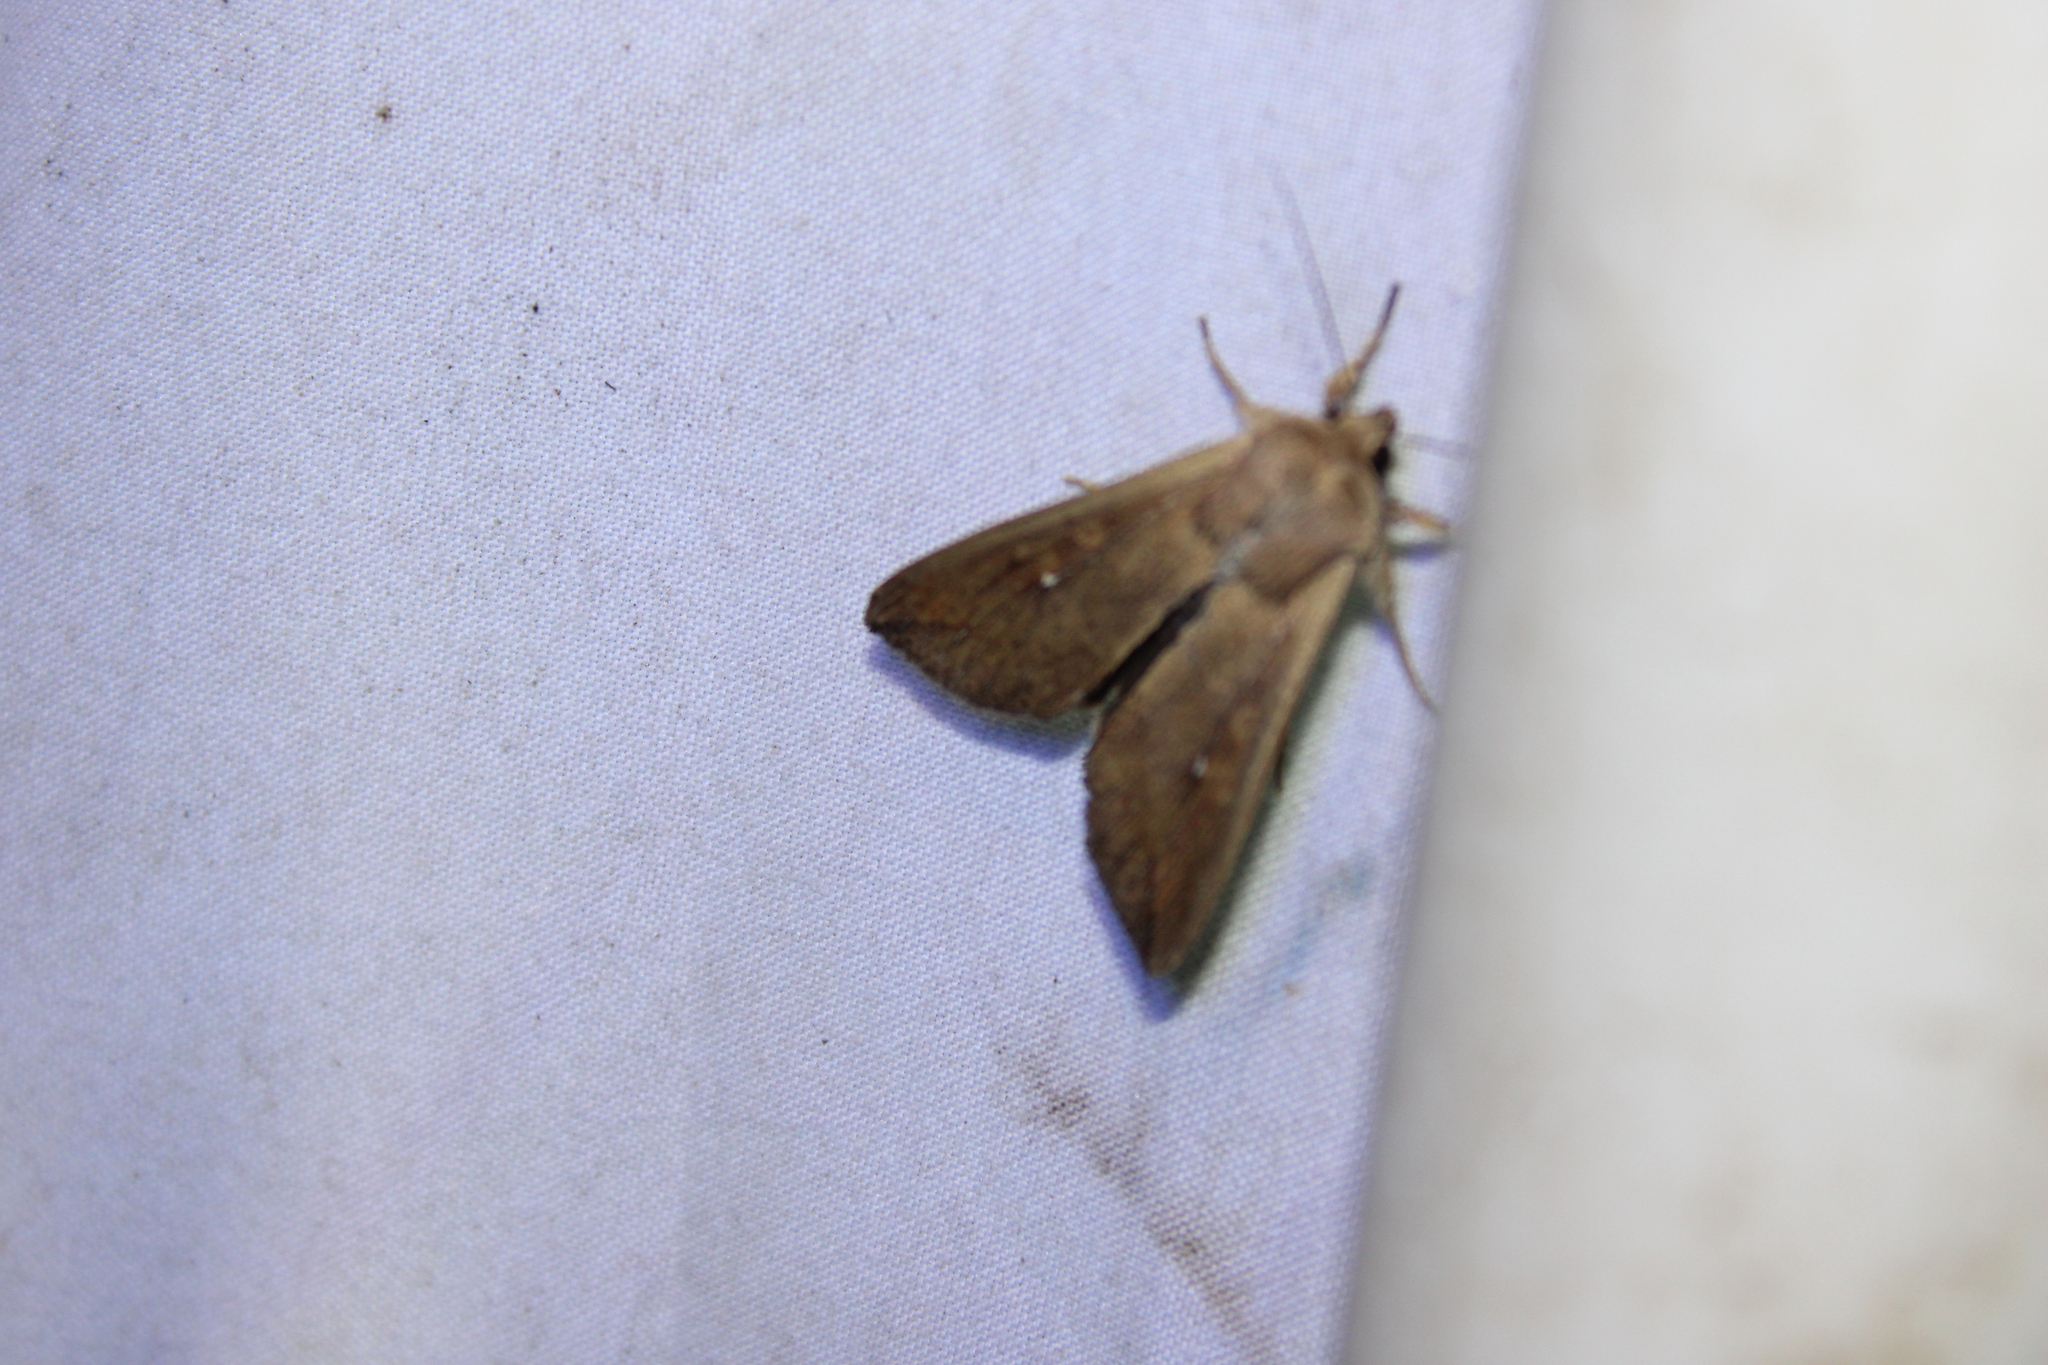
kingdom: Animalia
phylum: Arthropoda
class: Insecta
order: Lepidoptera
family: Noctuidae
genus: Mythimna
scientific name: Mythimna unipuncta
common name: White-speck
